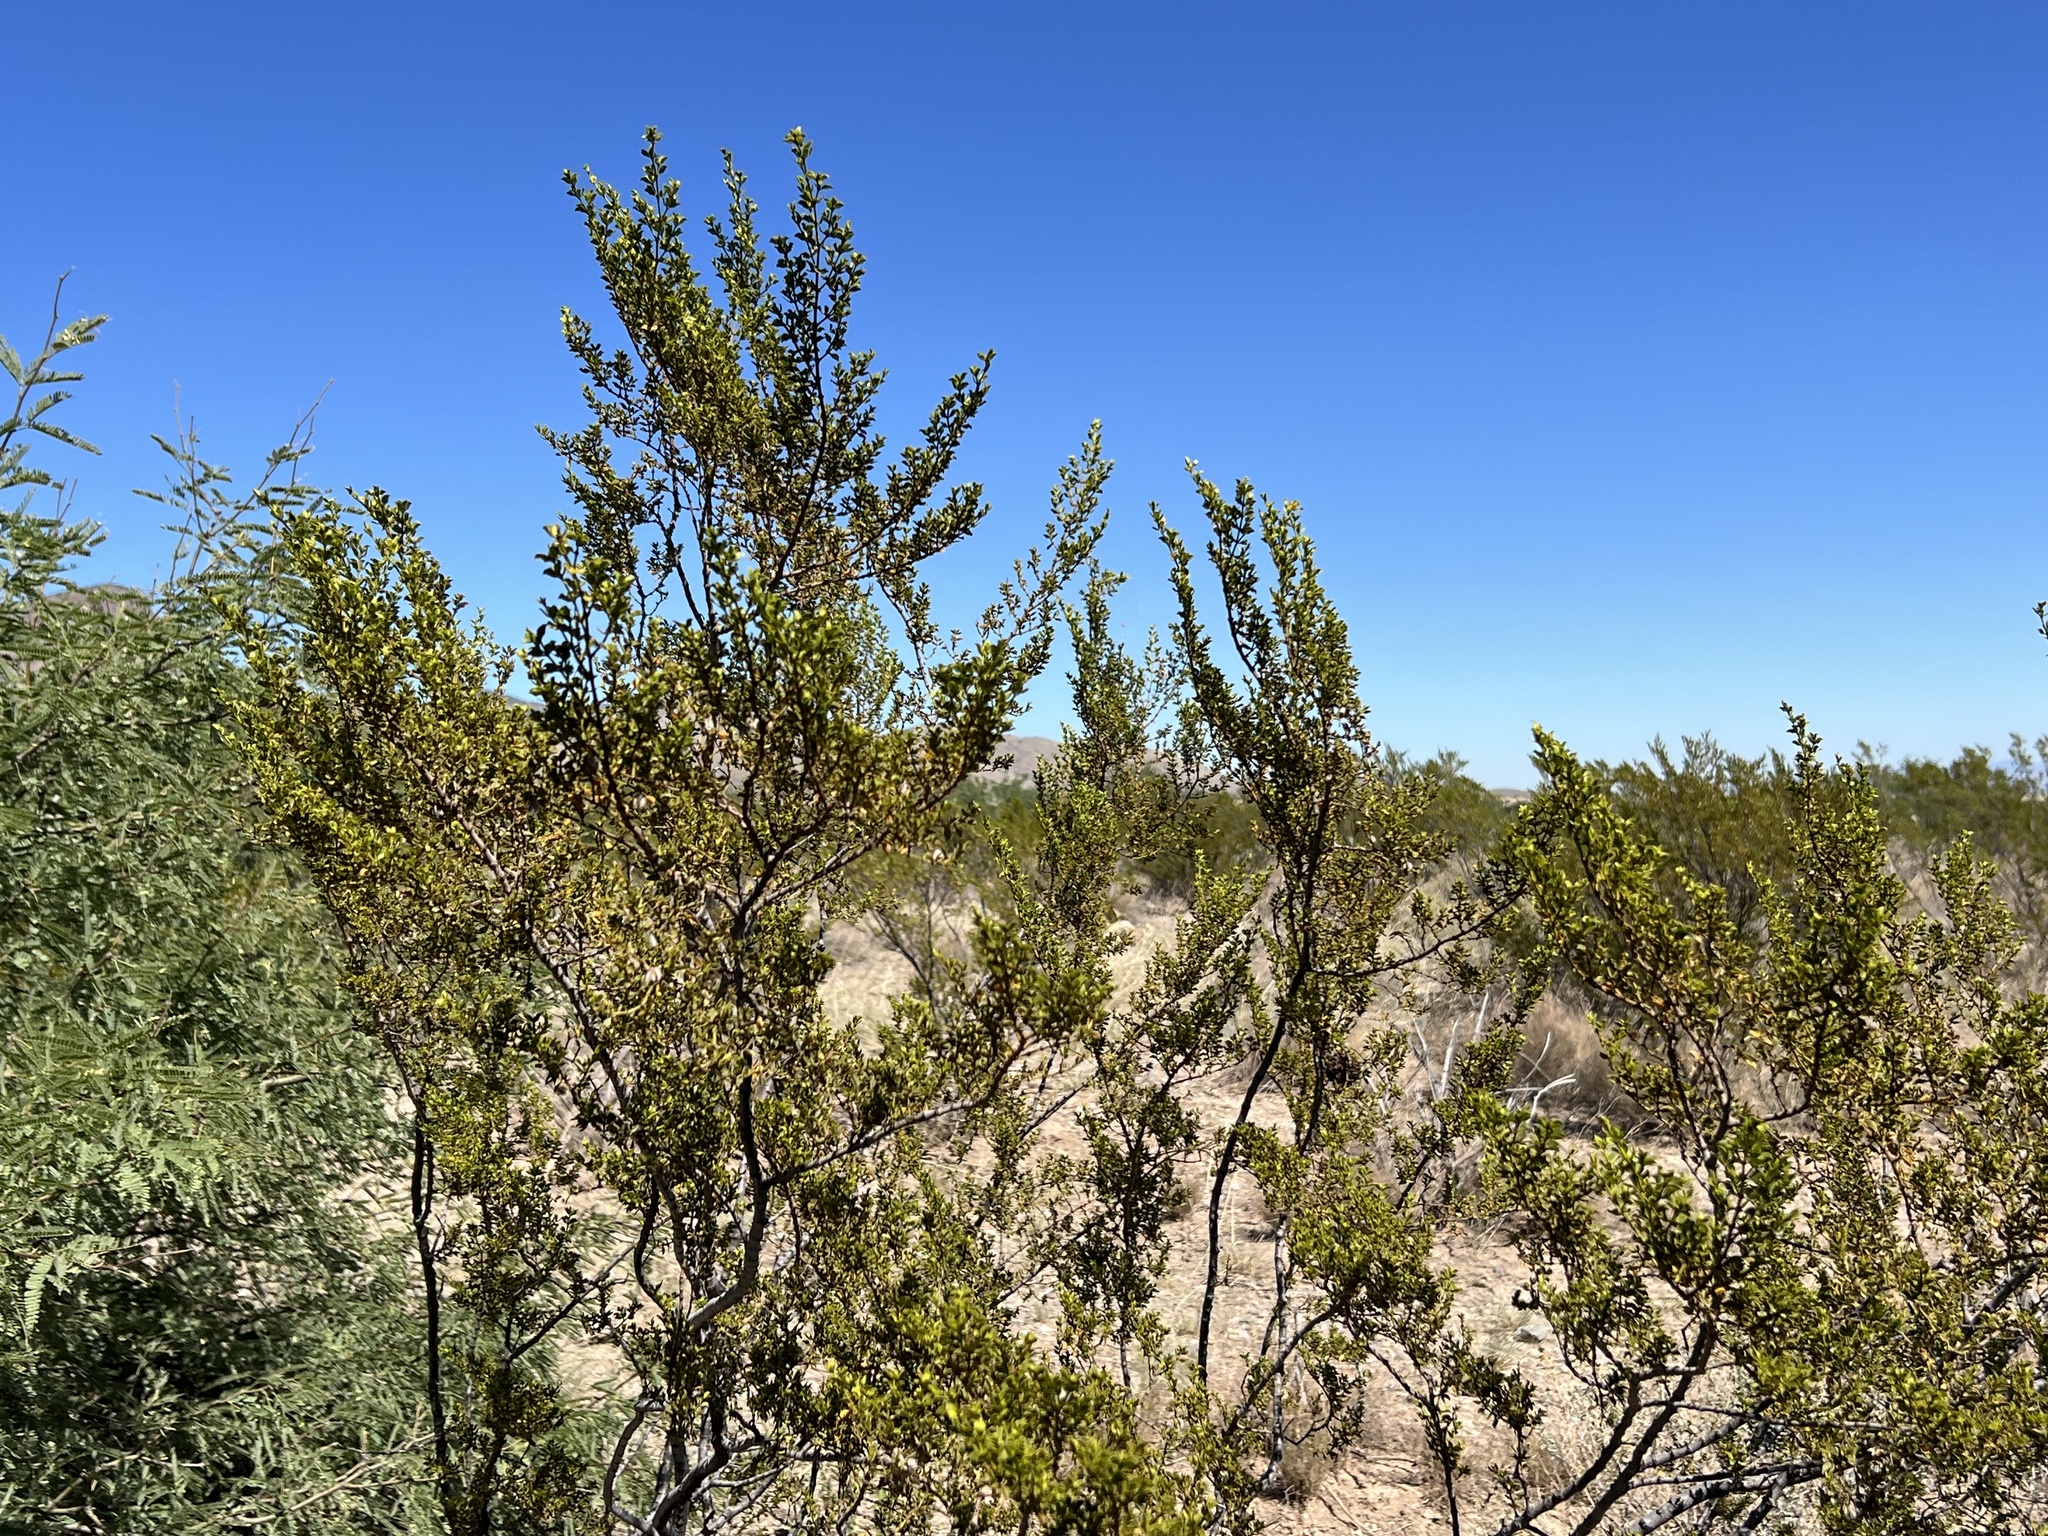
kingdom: Plantae
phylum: Tracheophyta
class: Magnoliopsida
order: Zygophyllales
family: Zygophyllaceae
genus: Larrea
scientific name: Larrea tridentata
